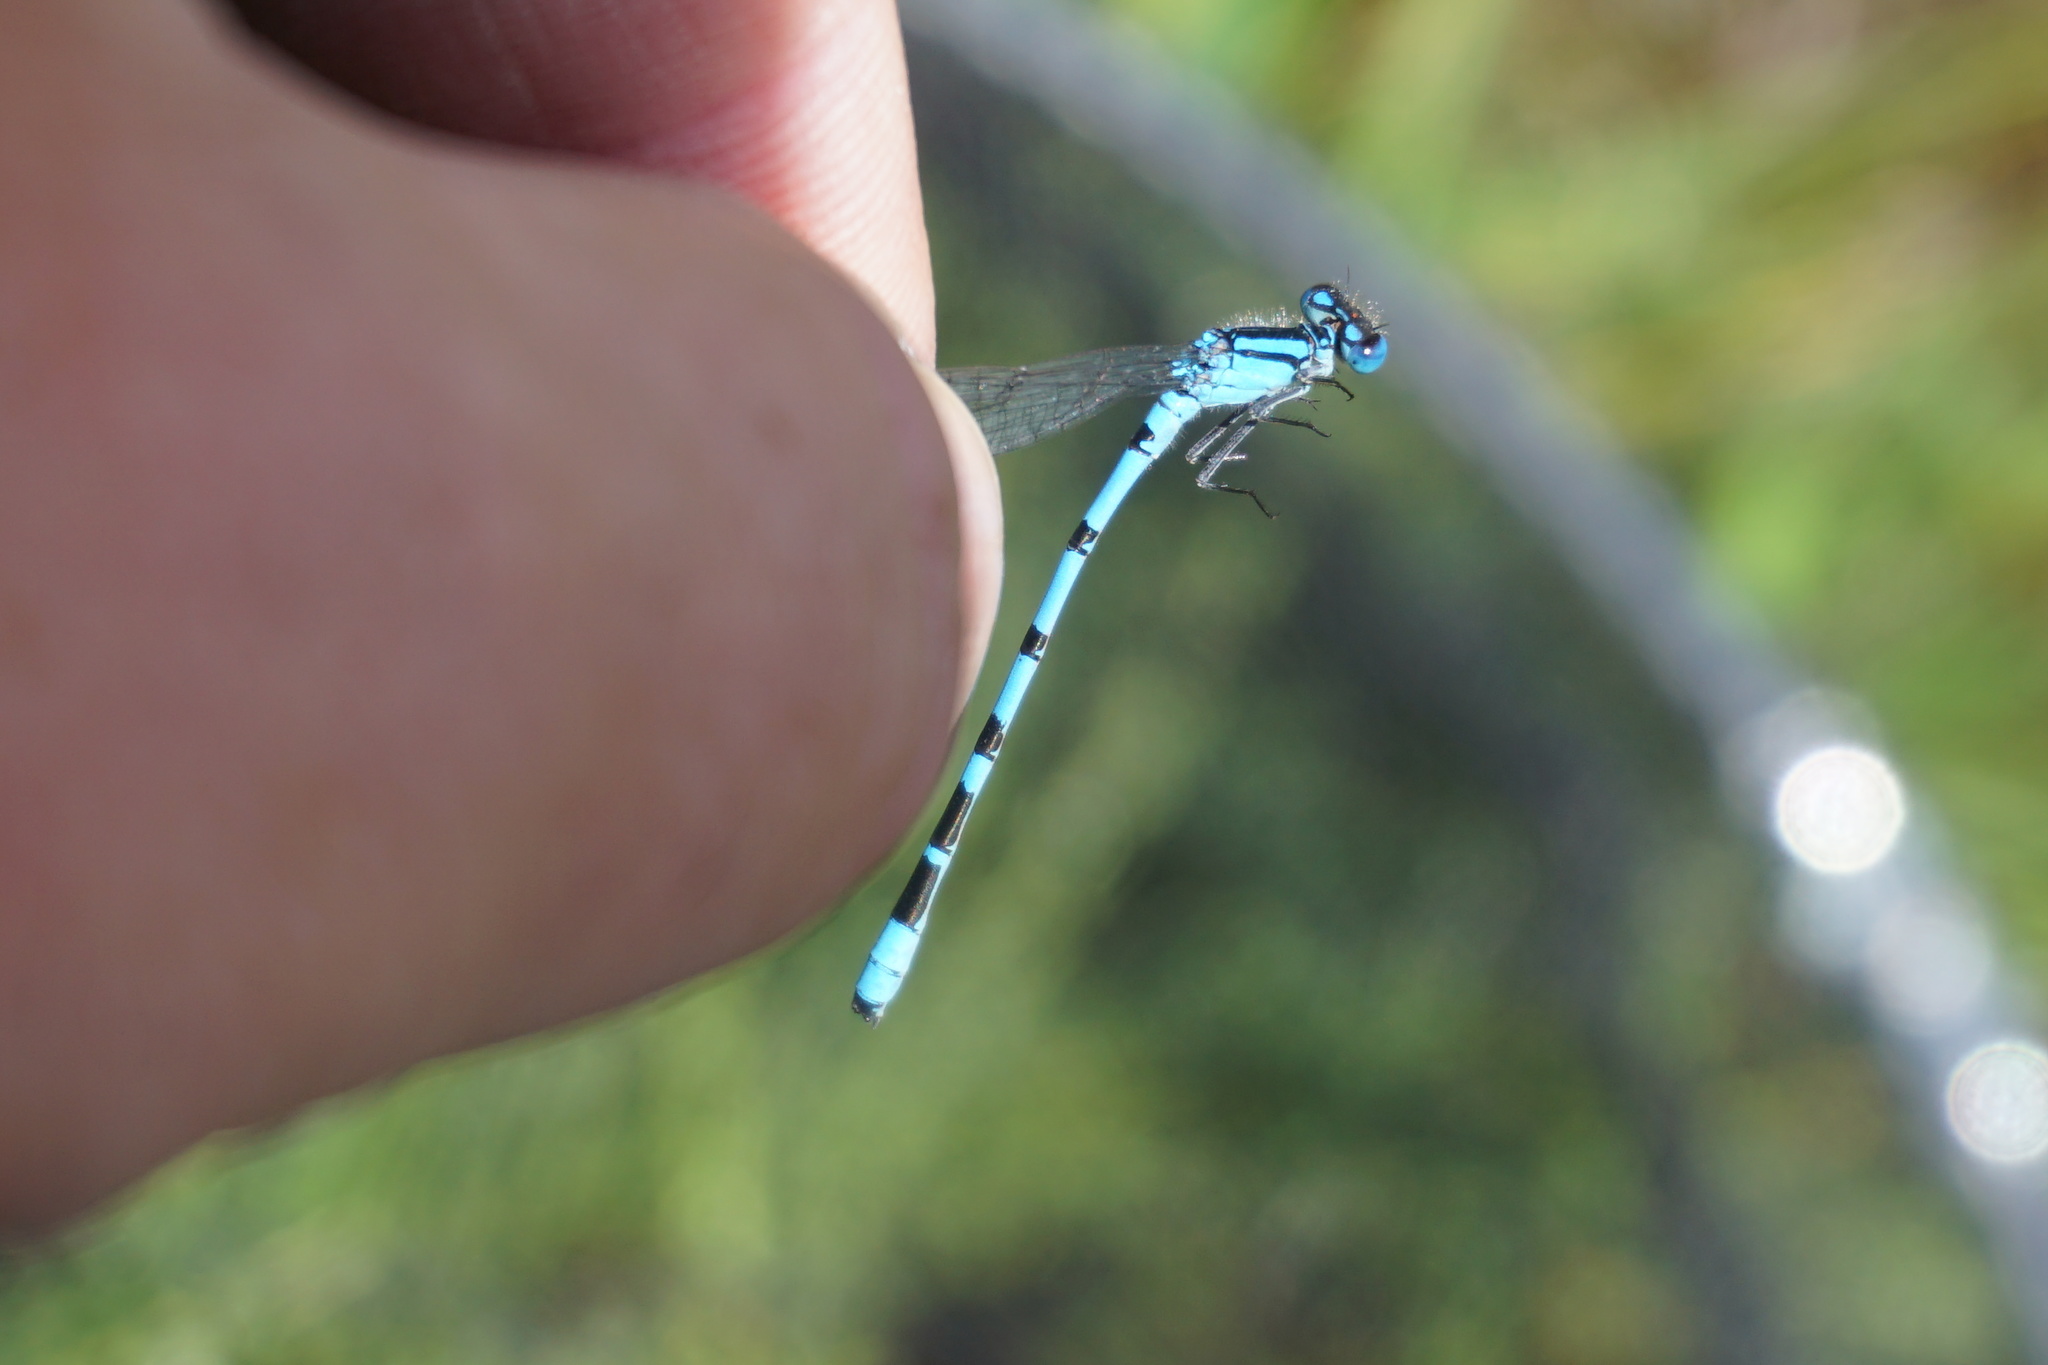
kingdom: Animalia
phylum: Arthropoda
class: Insecta
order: Odonata
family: Coenagrionidae
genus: Enallagma
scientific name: Enallagma cyathigerum
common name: Common blue damselfly
